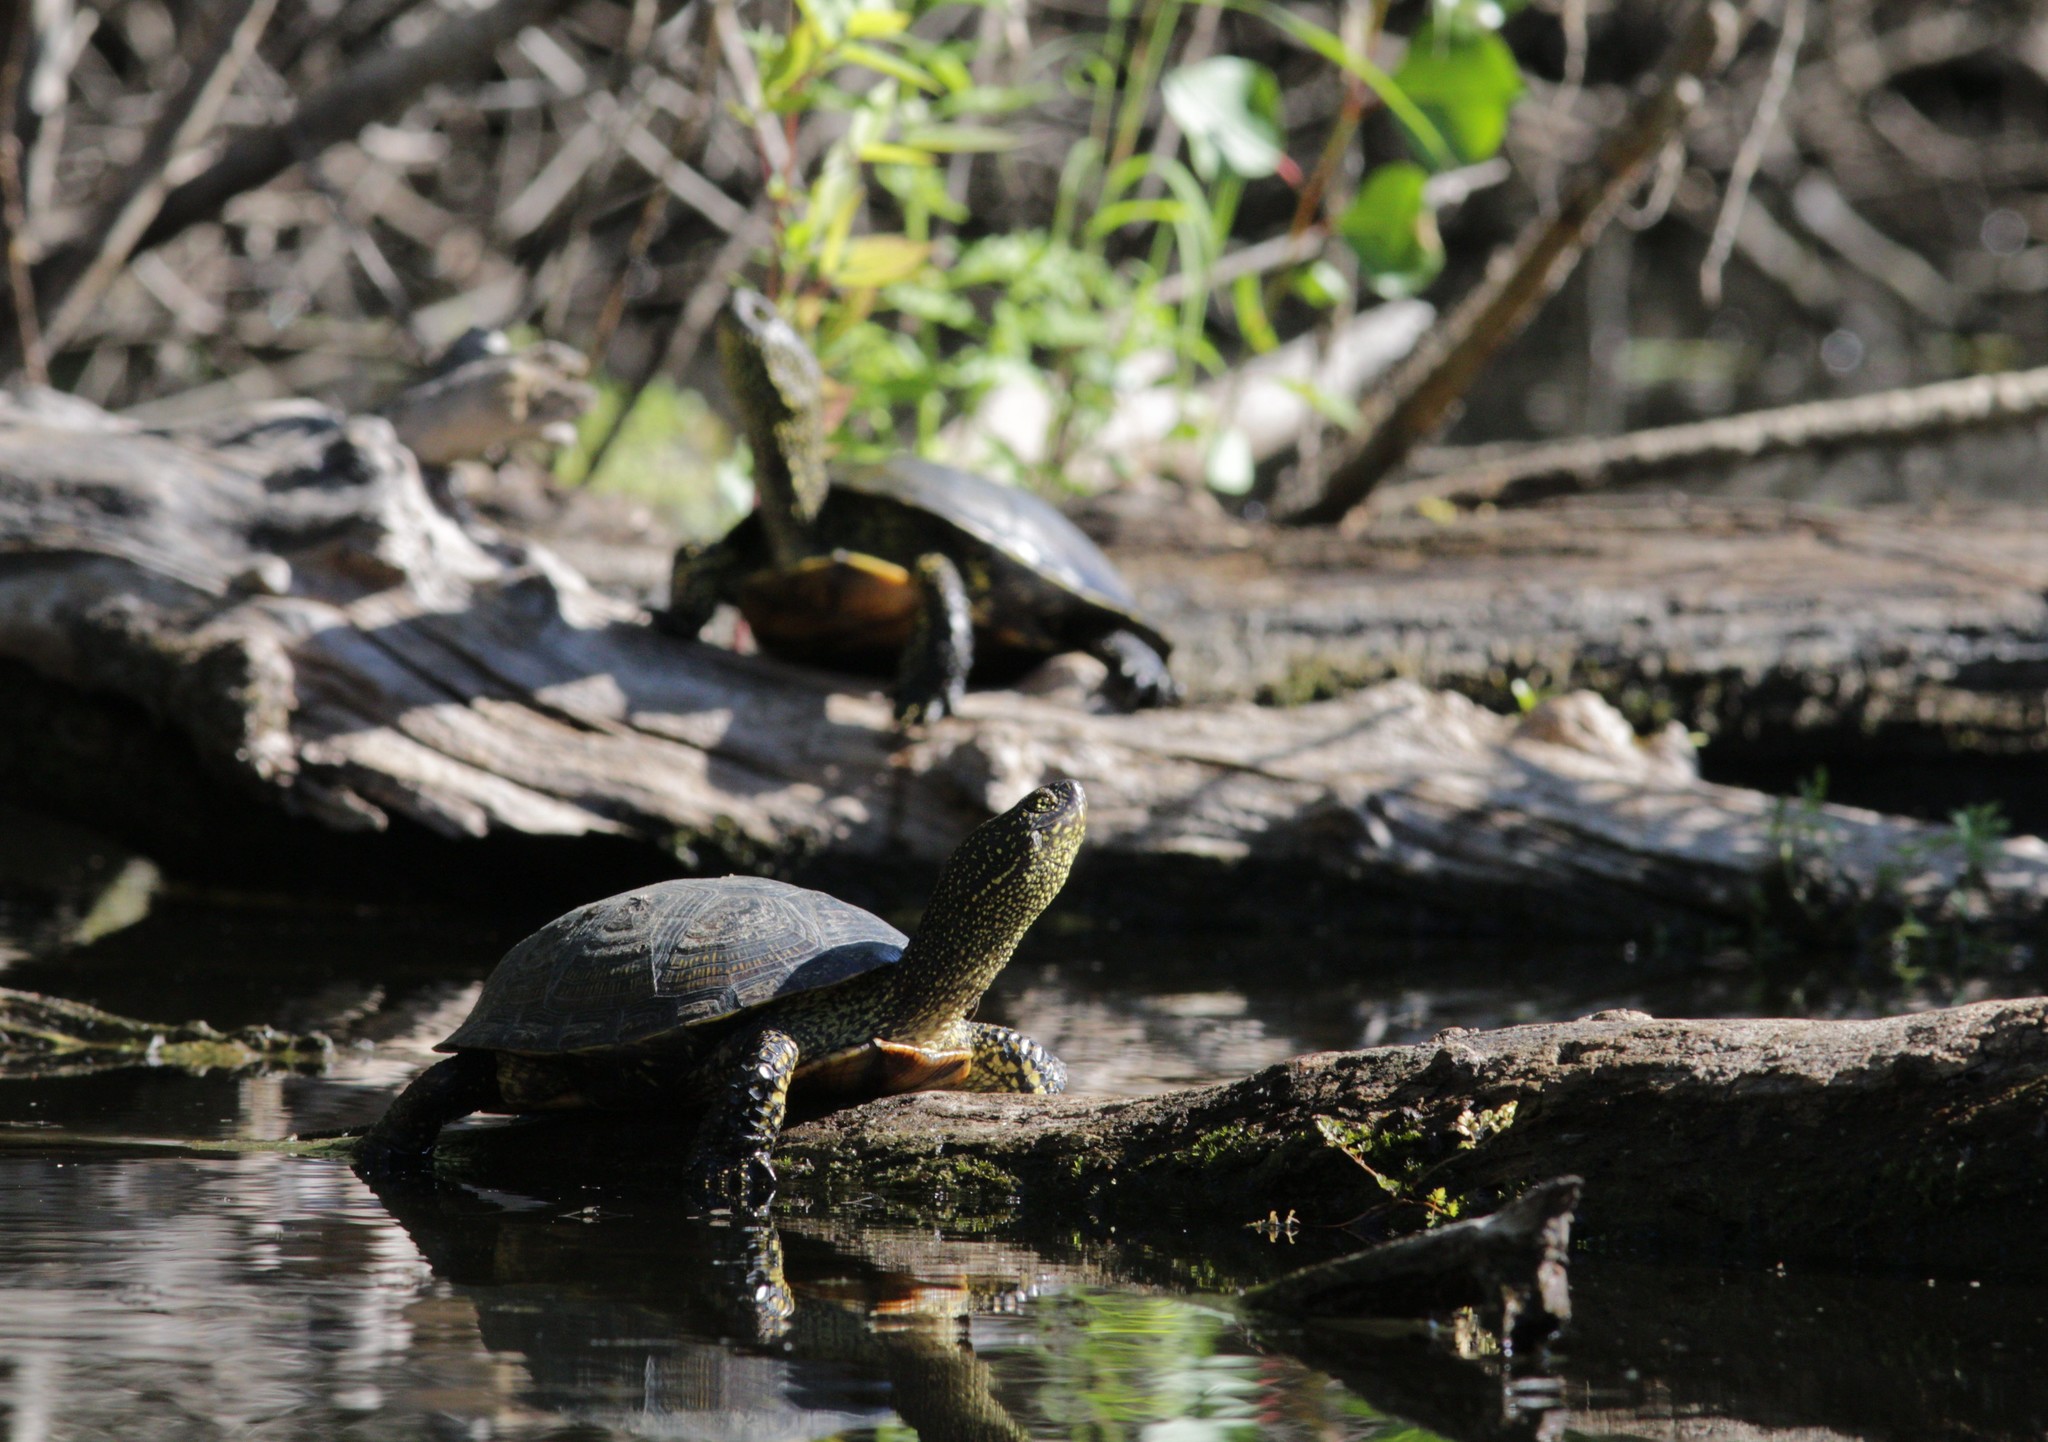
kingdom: Animalia
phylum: Chordata
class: Testudines
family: Emydidae
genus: Emys
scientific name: Emys orbicularis
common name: European pond turtle
